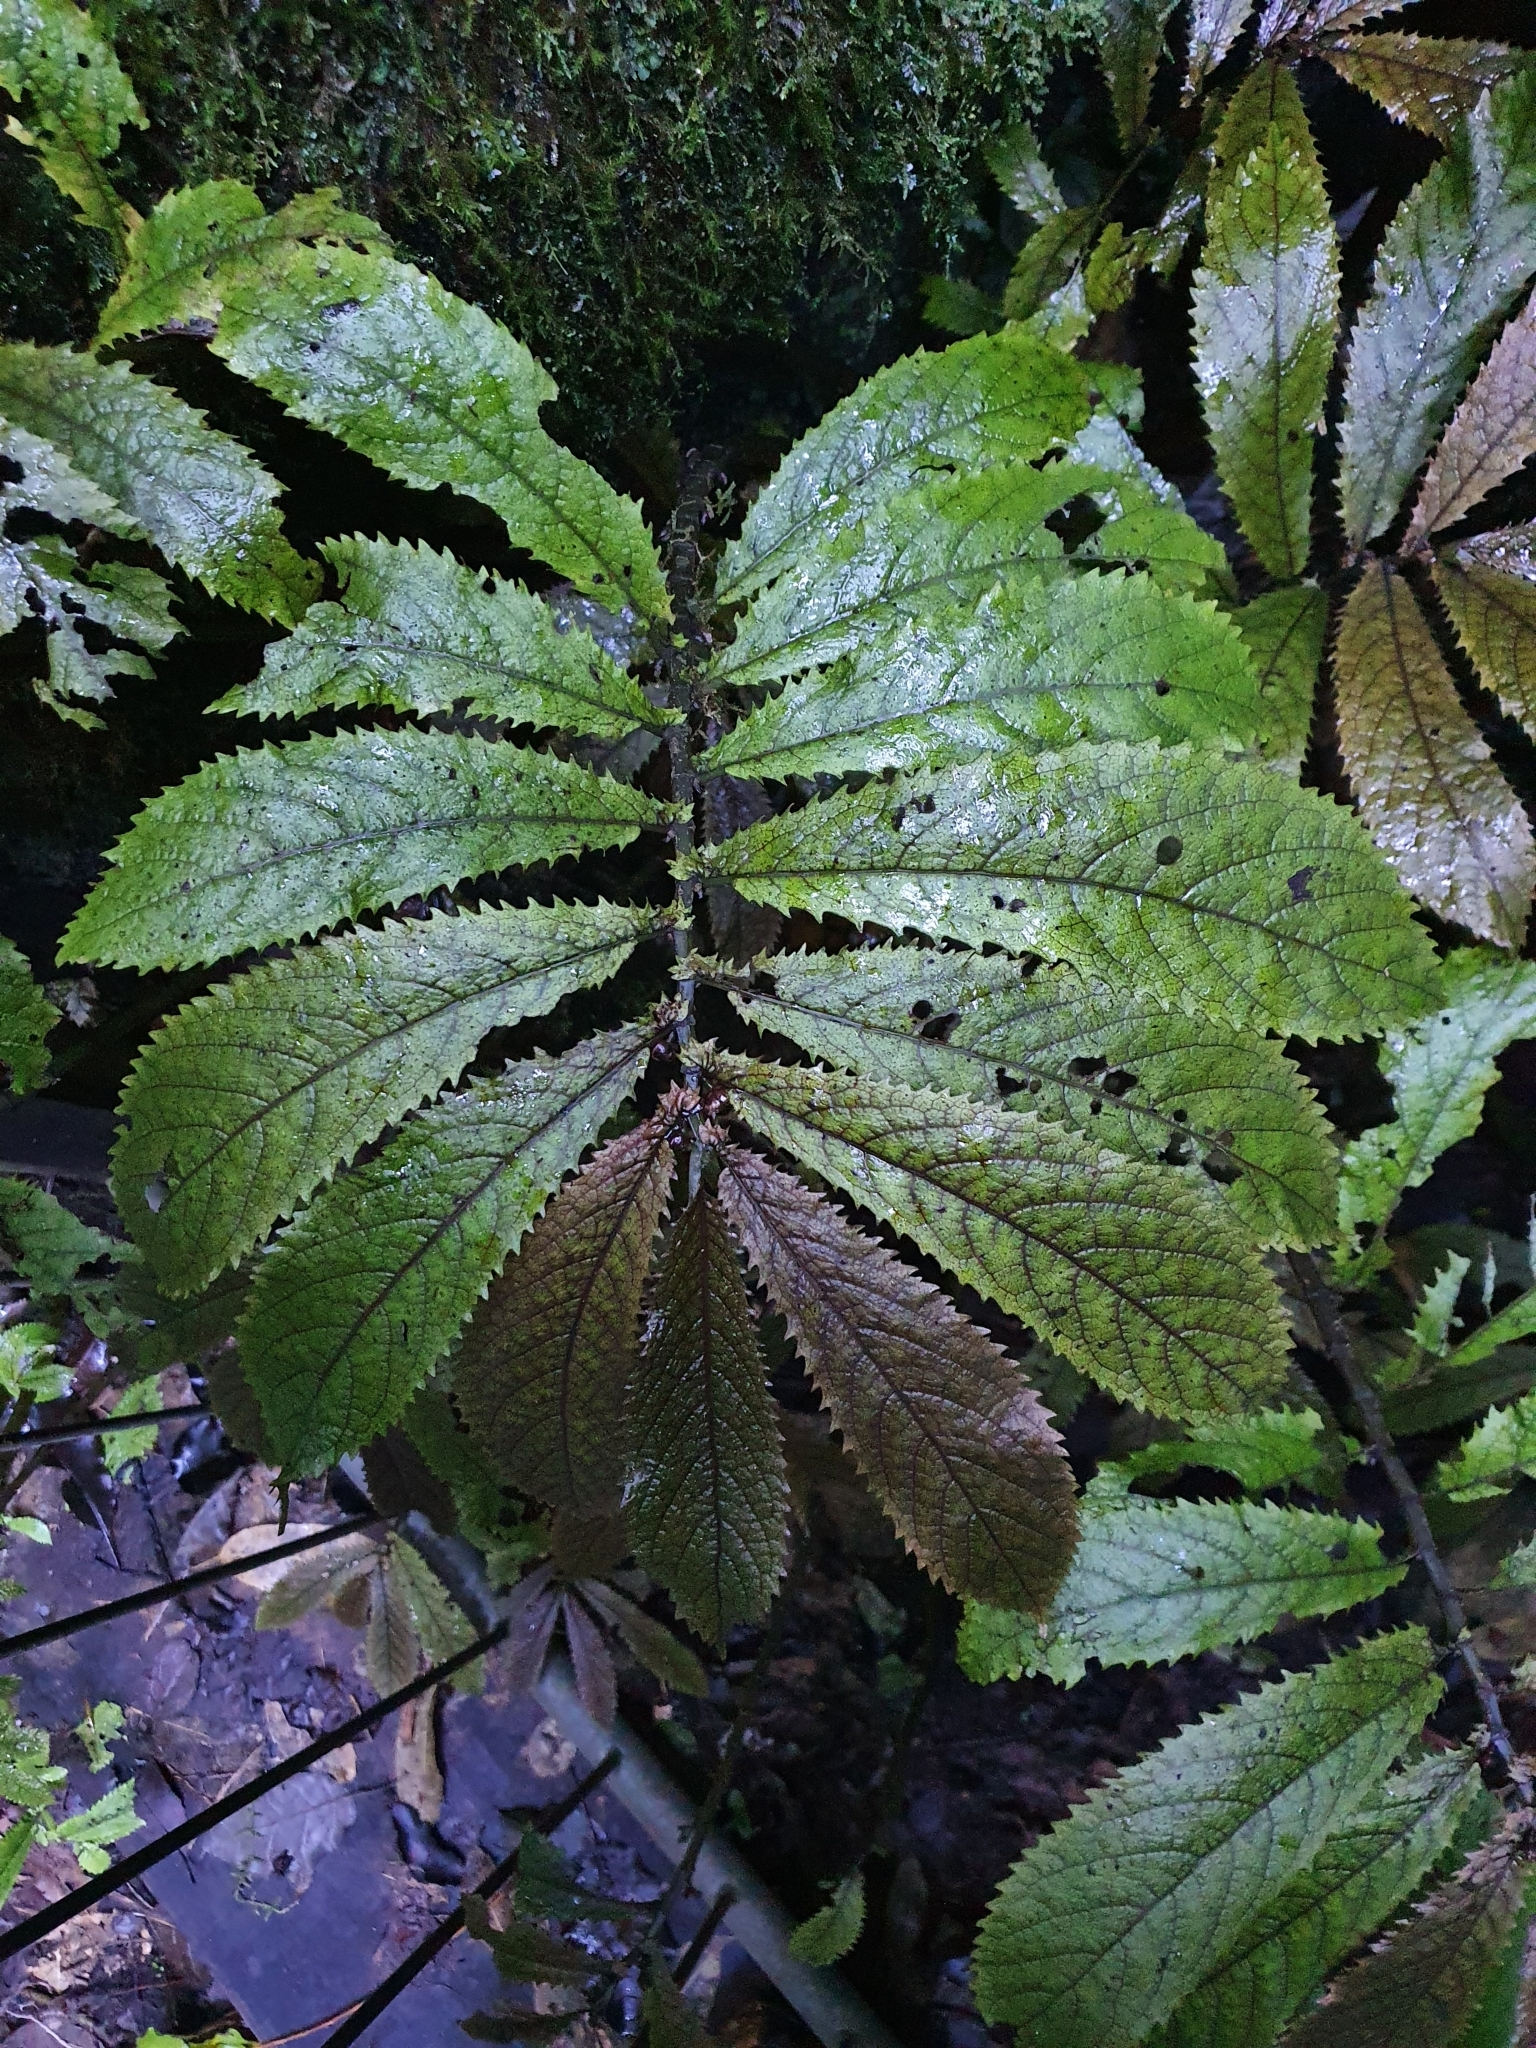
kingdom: Plantae
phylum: Tracheophyta
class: Magnoliopsida
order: Rosales
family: Urticaceae
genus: Elatostema
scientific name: Elatostema rugosum
